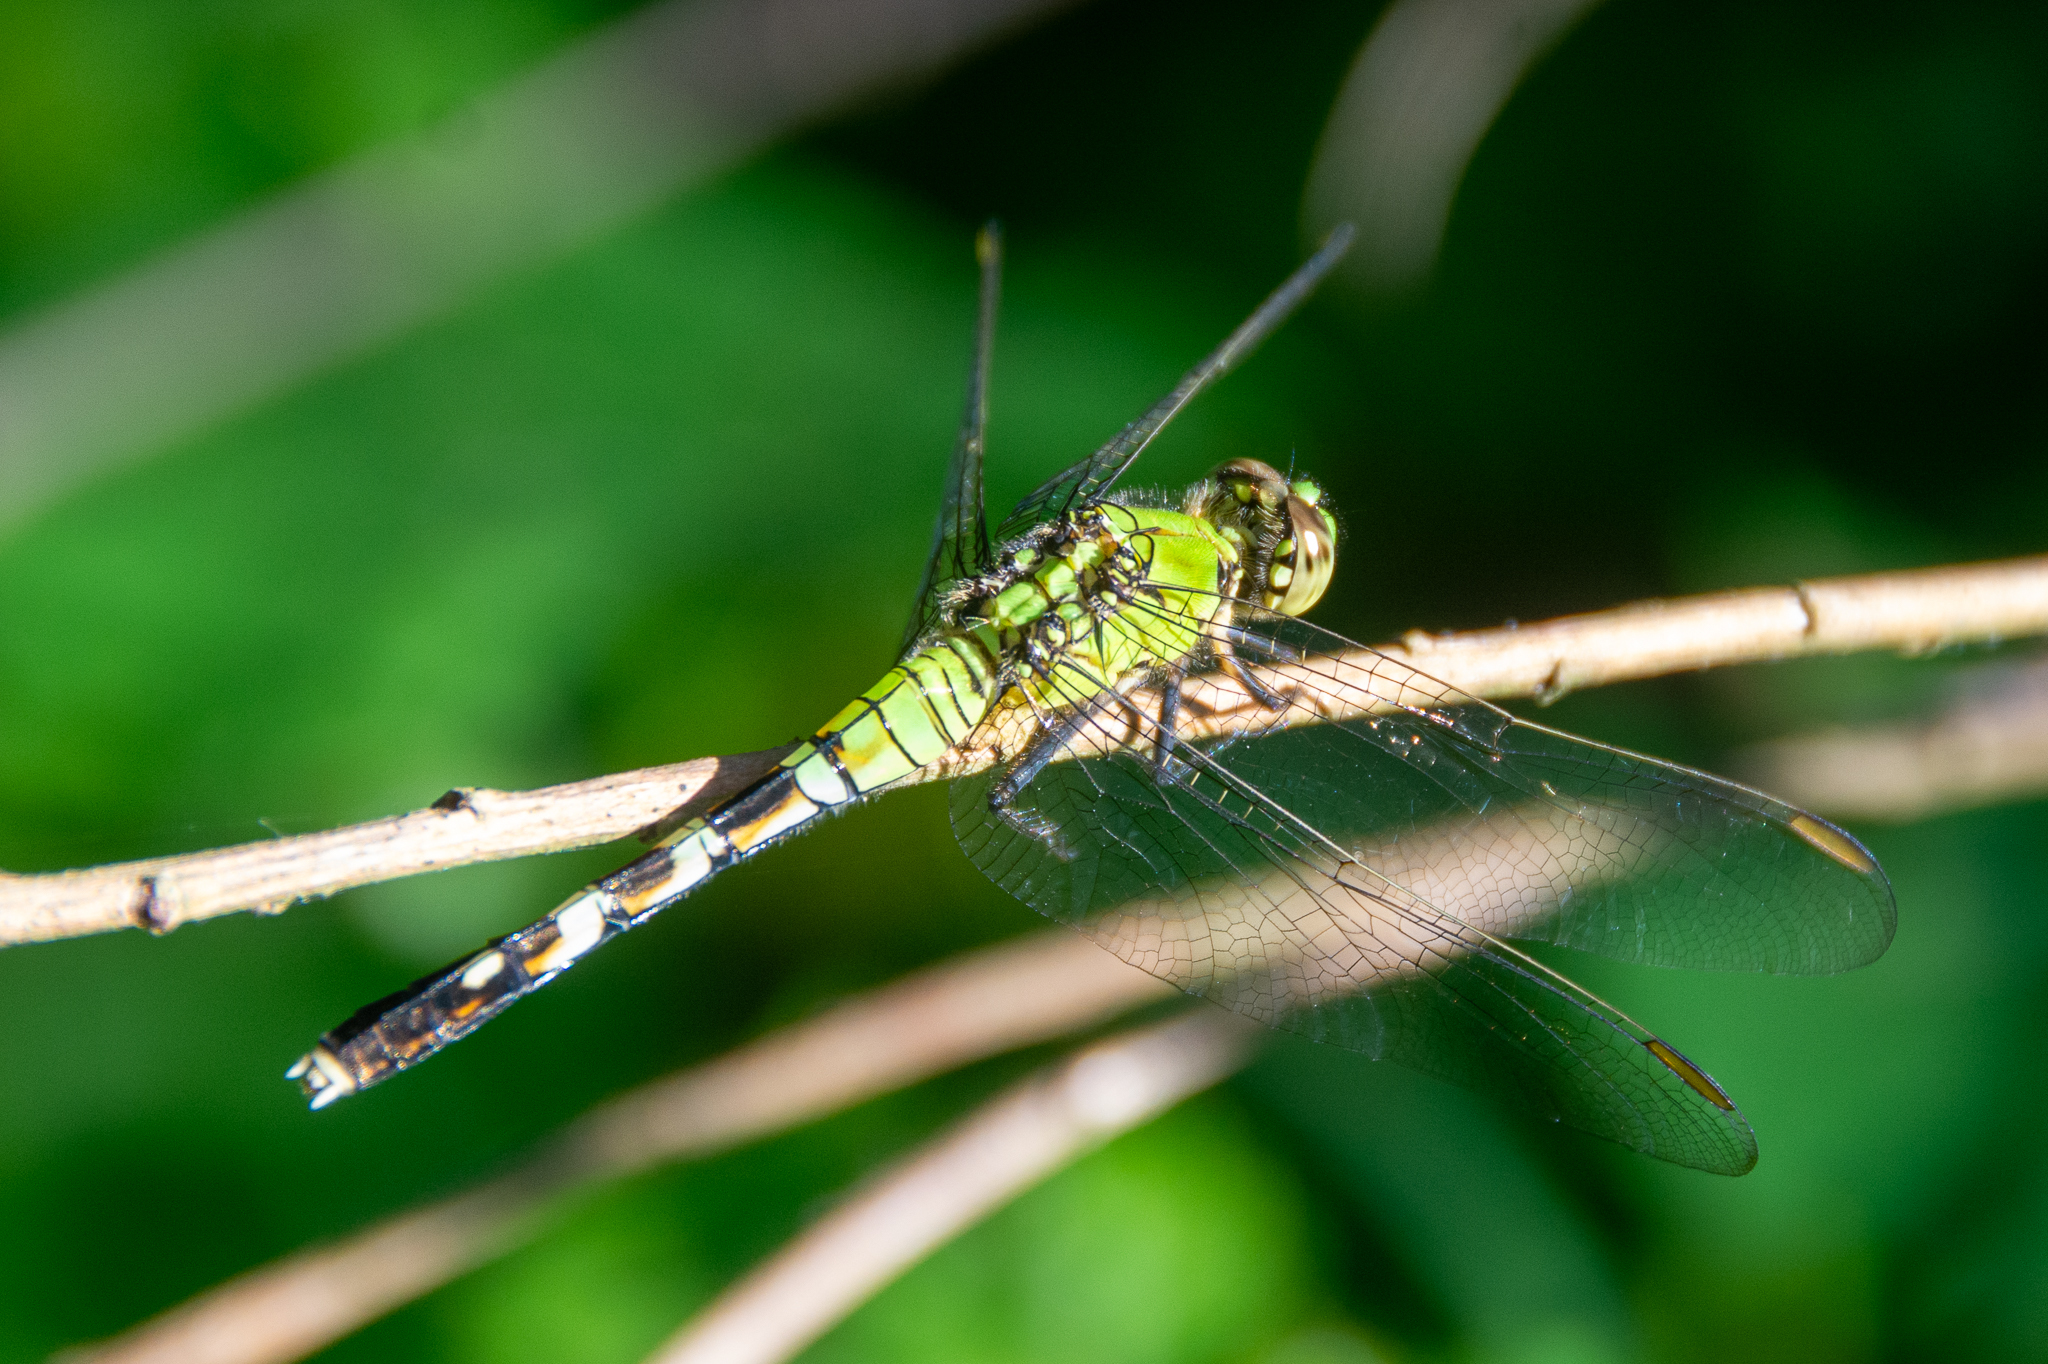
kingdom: Animalia
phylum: Arthropoda
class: Insecta
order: Odonata
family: Libellulidae
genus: Erythemis
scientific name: Erythemis simplicicollis
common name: Eastern pondhawk
